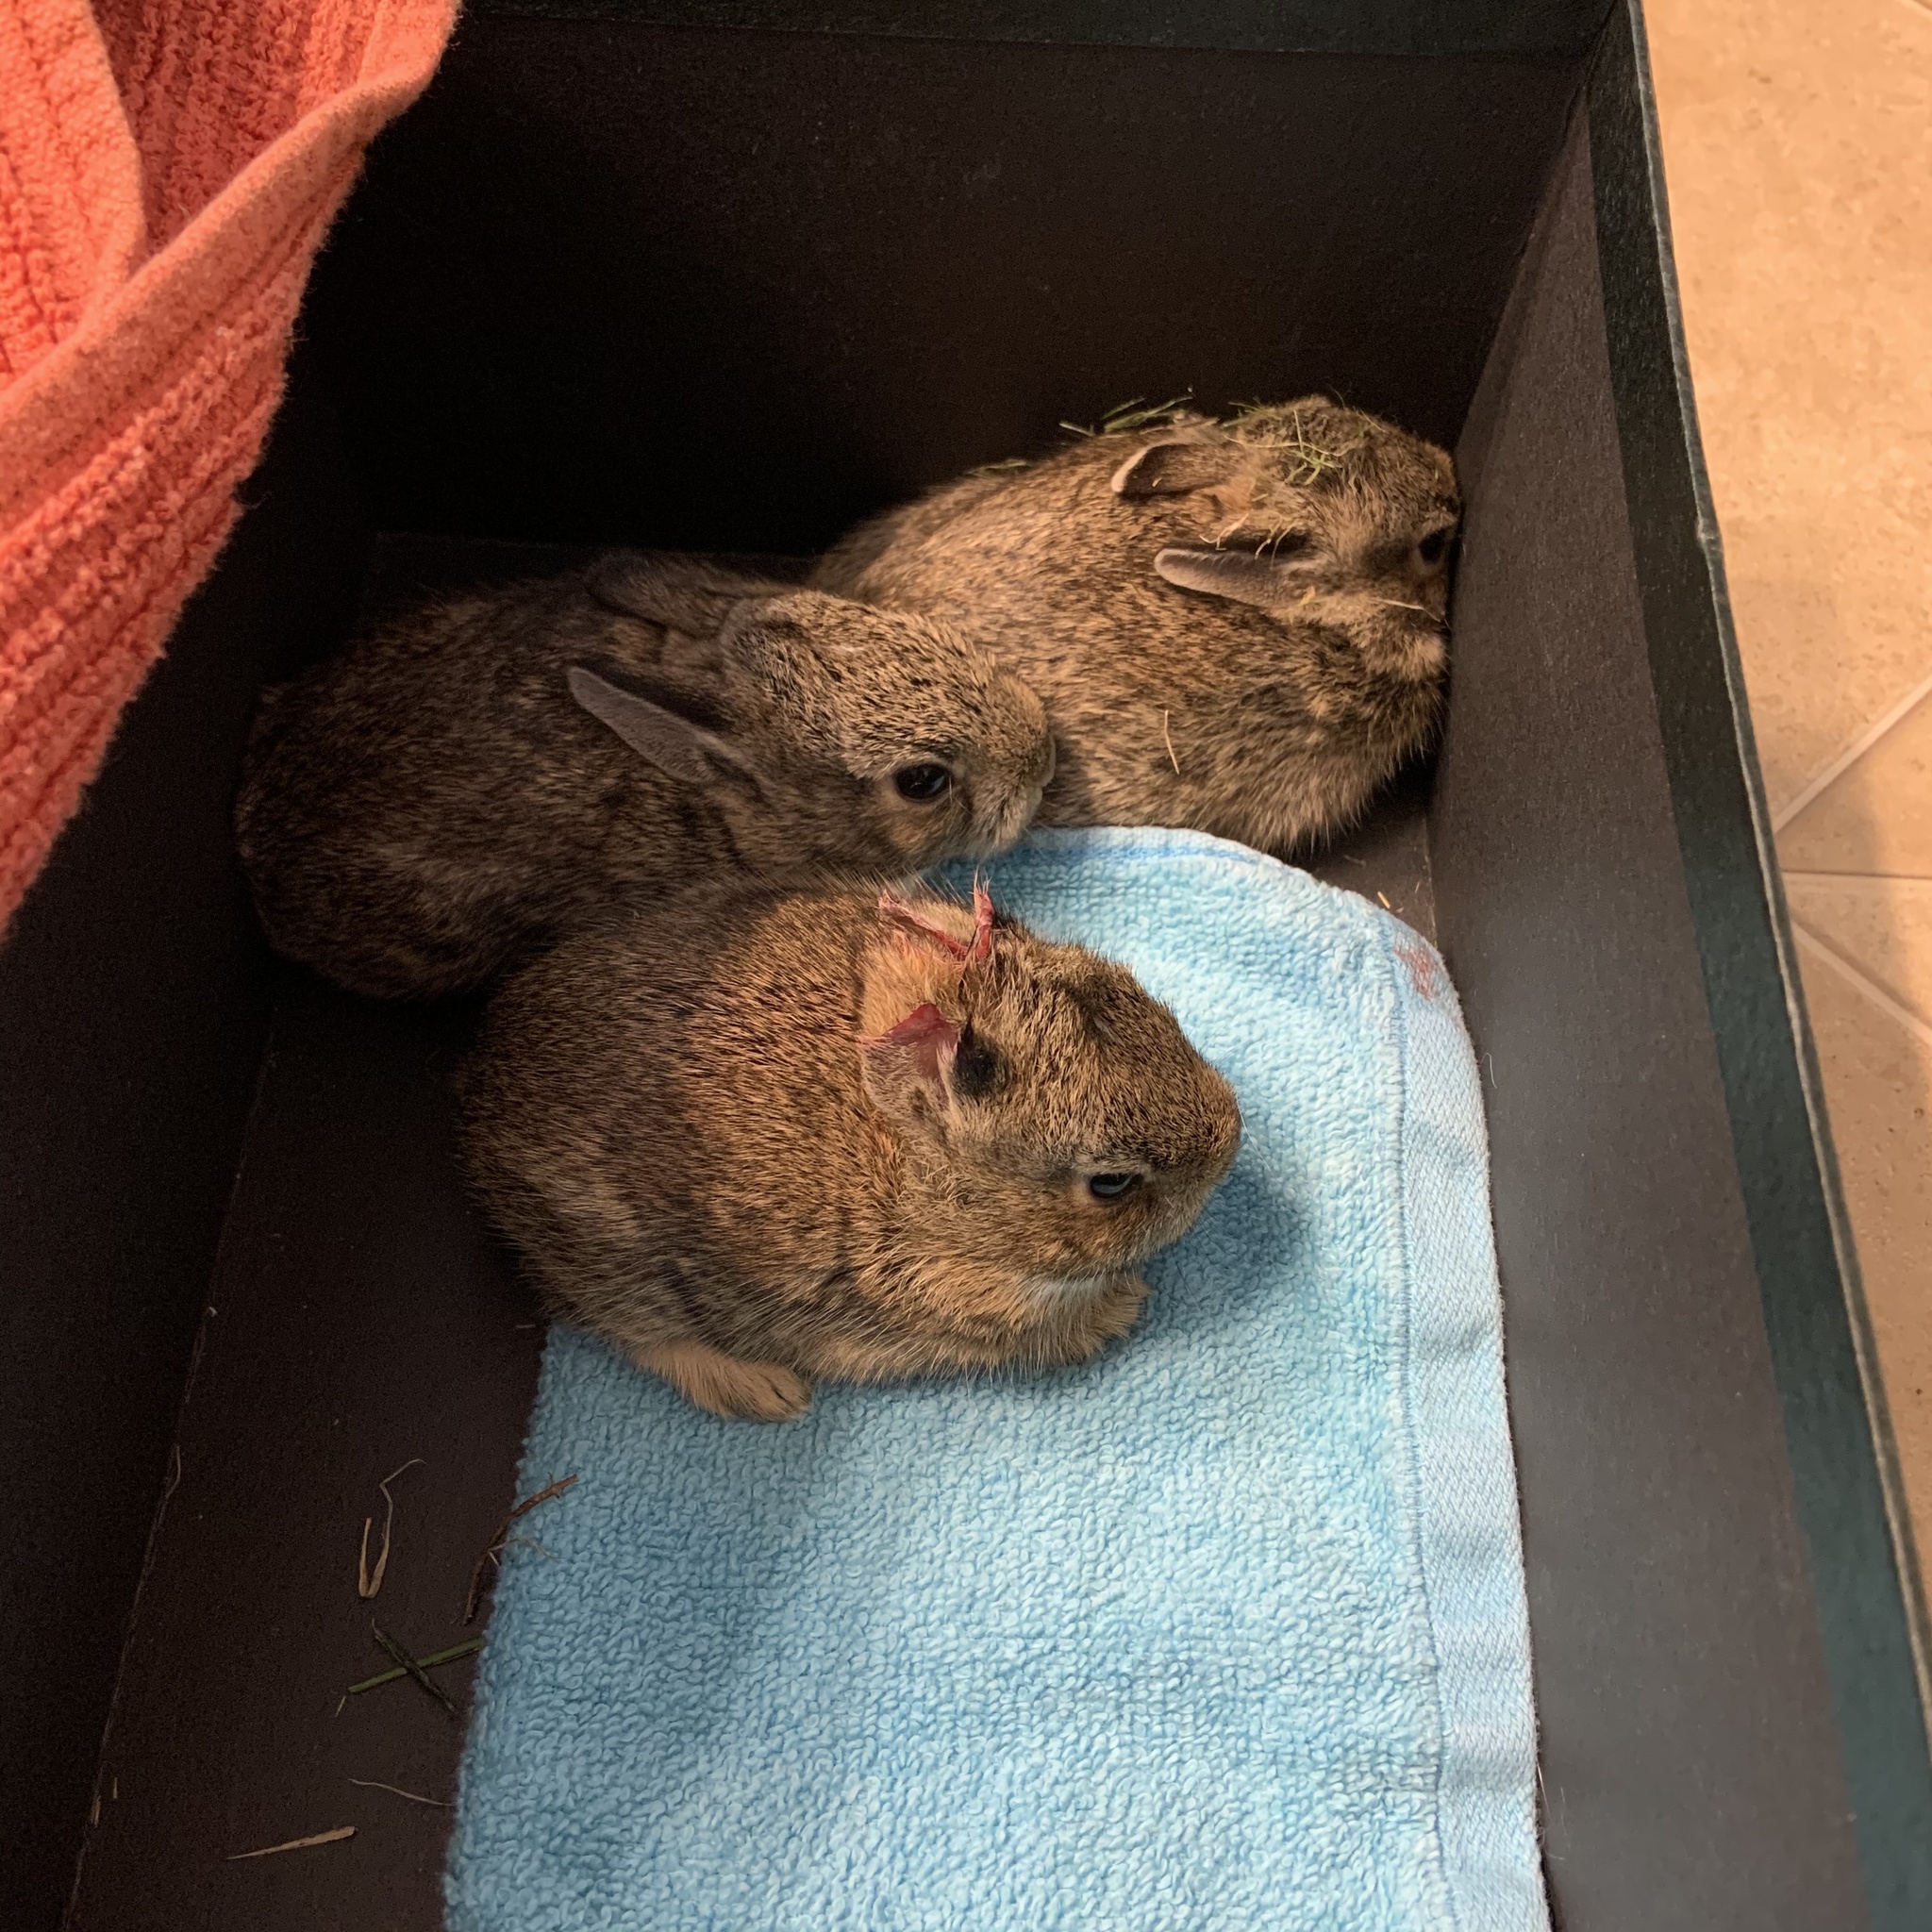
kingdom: Animalia
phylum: Chordata
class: Mammalia
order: Lagomorpha
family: Leporidae
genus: Sylvilagus
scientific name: Sylvilagus obscurus
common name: Appalachian cottontail
